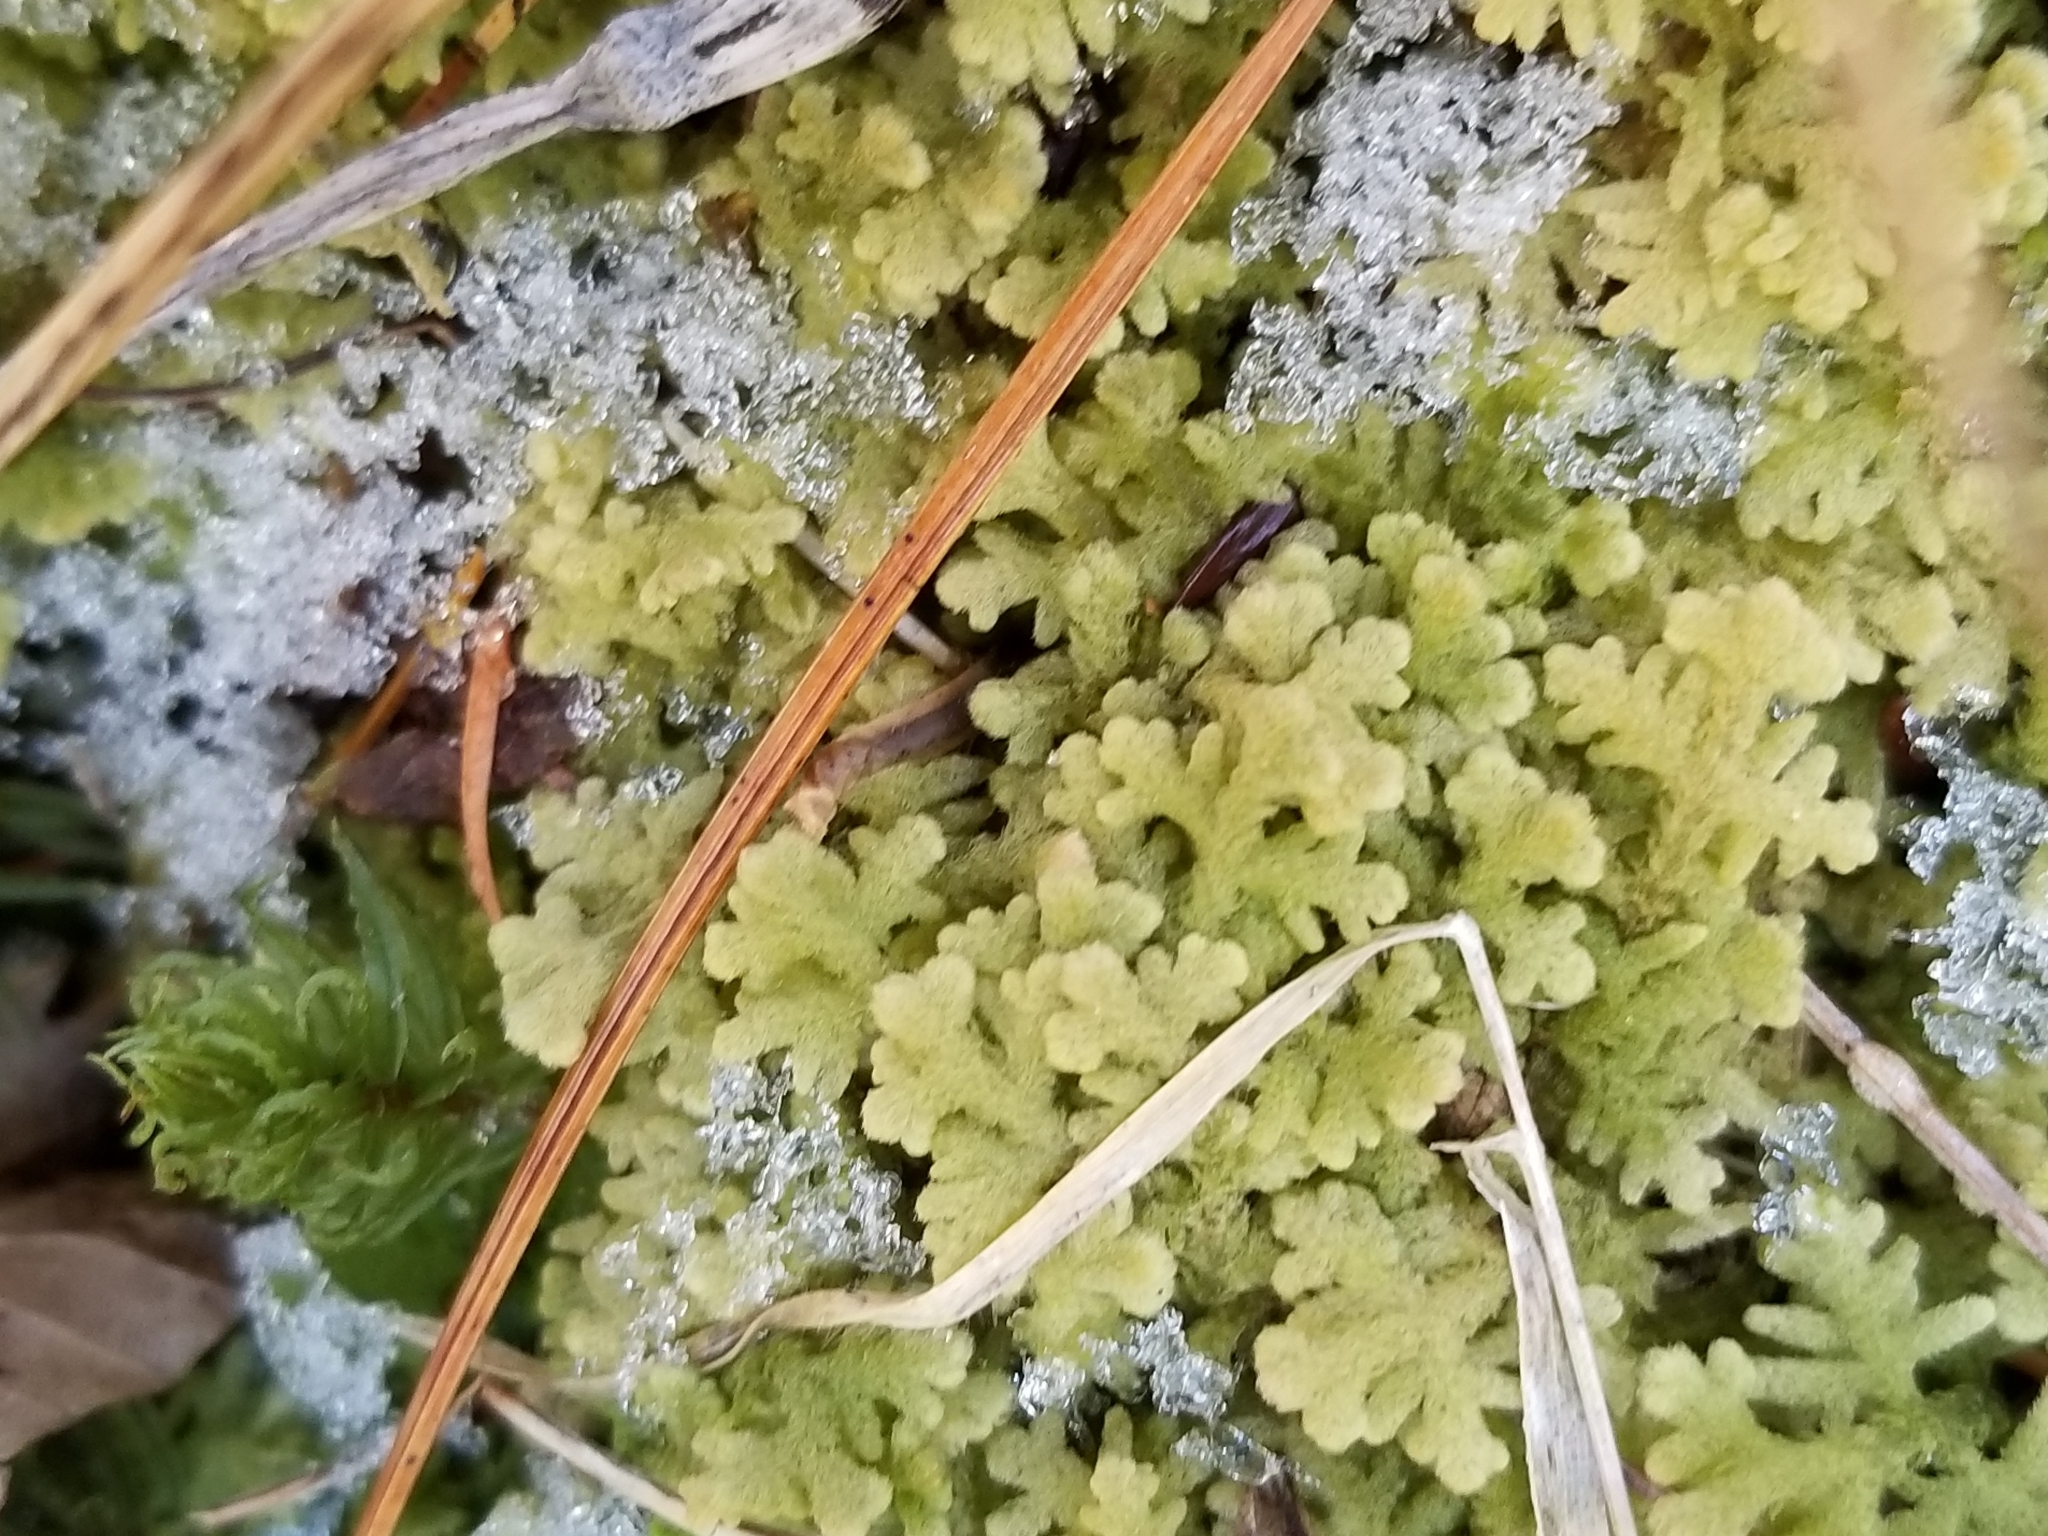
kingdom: Plantae
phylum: Marchantiophyta
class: Jungermanniopsida
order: Jungermanniales
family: Trichocoleaceae
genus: Trichocolea
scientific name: Trichocolea tomentella
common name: Woolly liverwort
